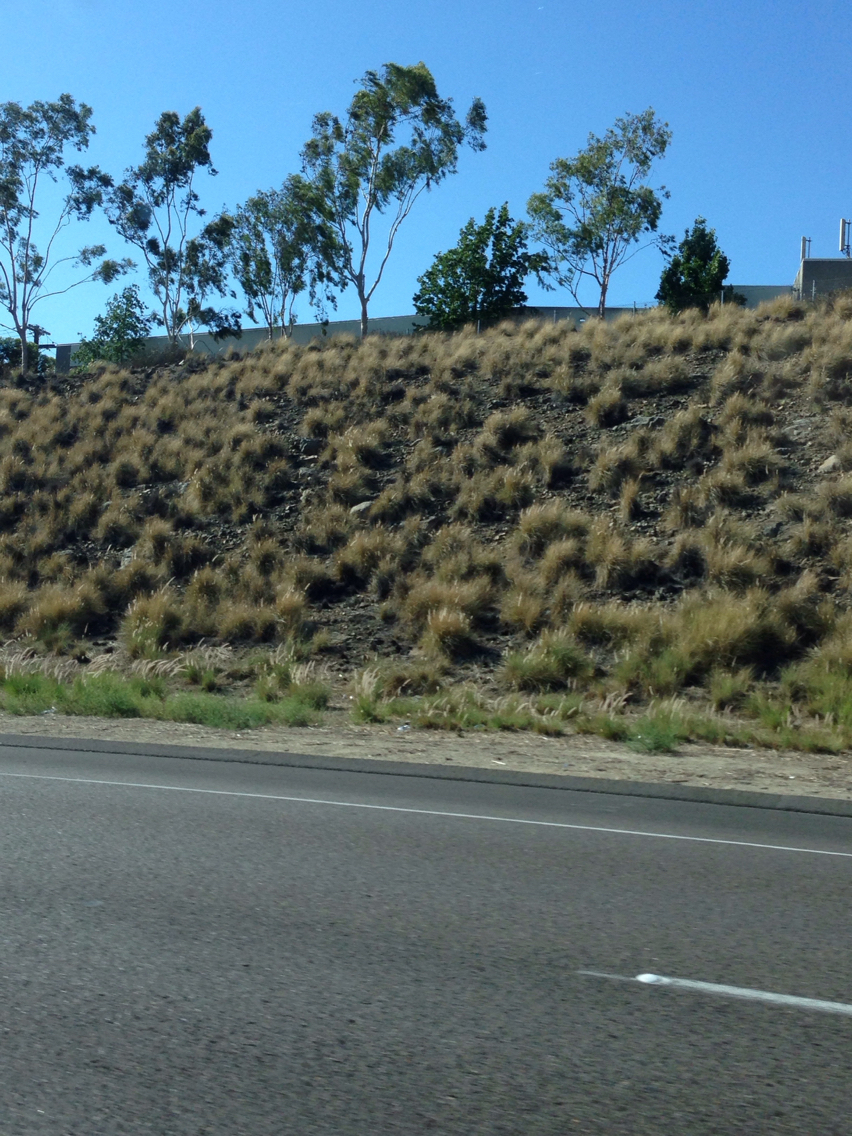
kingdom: Plantae
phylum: Tracheophyta
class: Liliopsida
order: Poales
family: Poaceae
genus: Cenchrus
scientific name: Cenchrus setaceus
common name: Crimson fountaingrass
